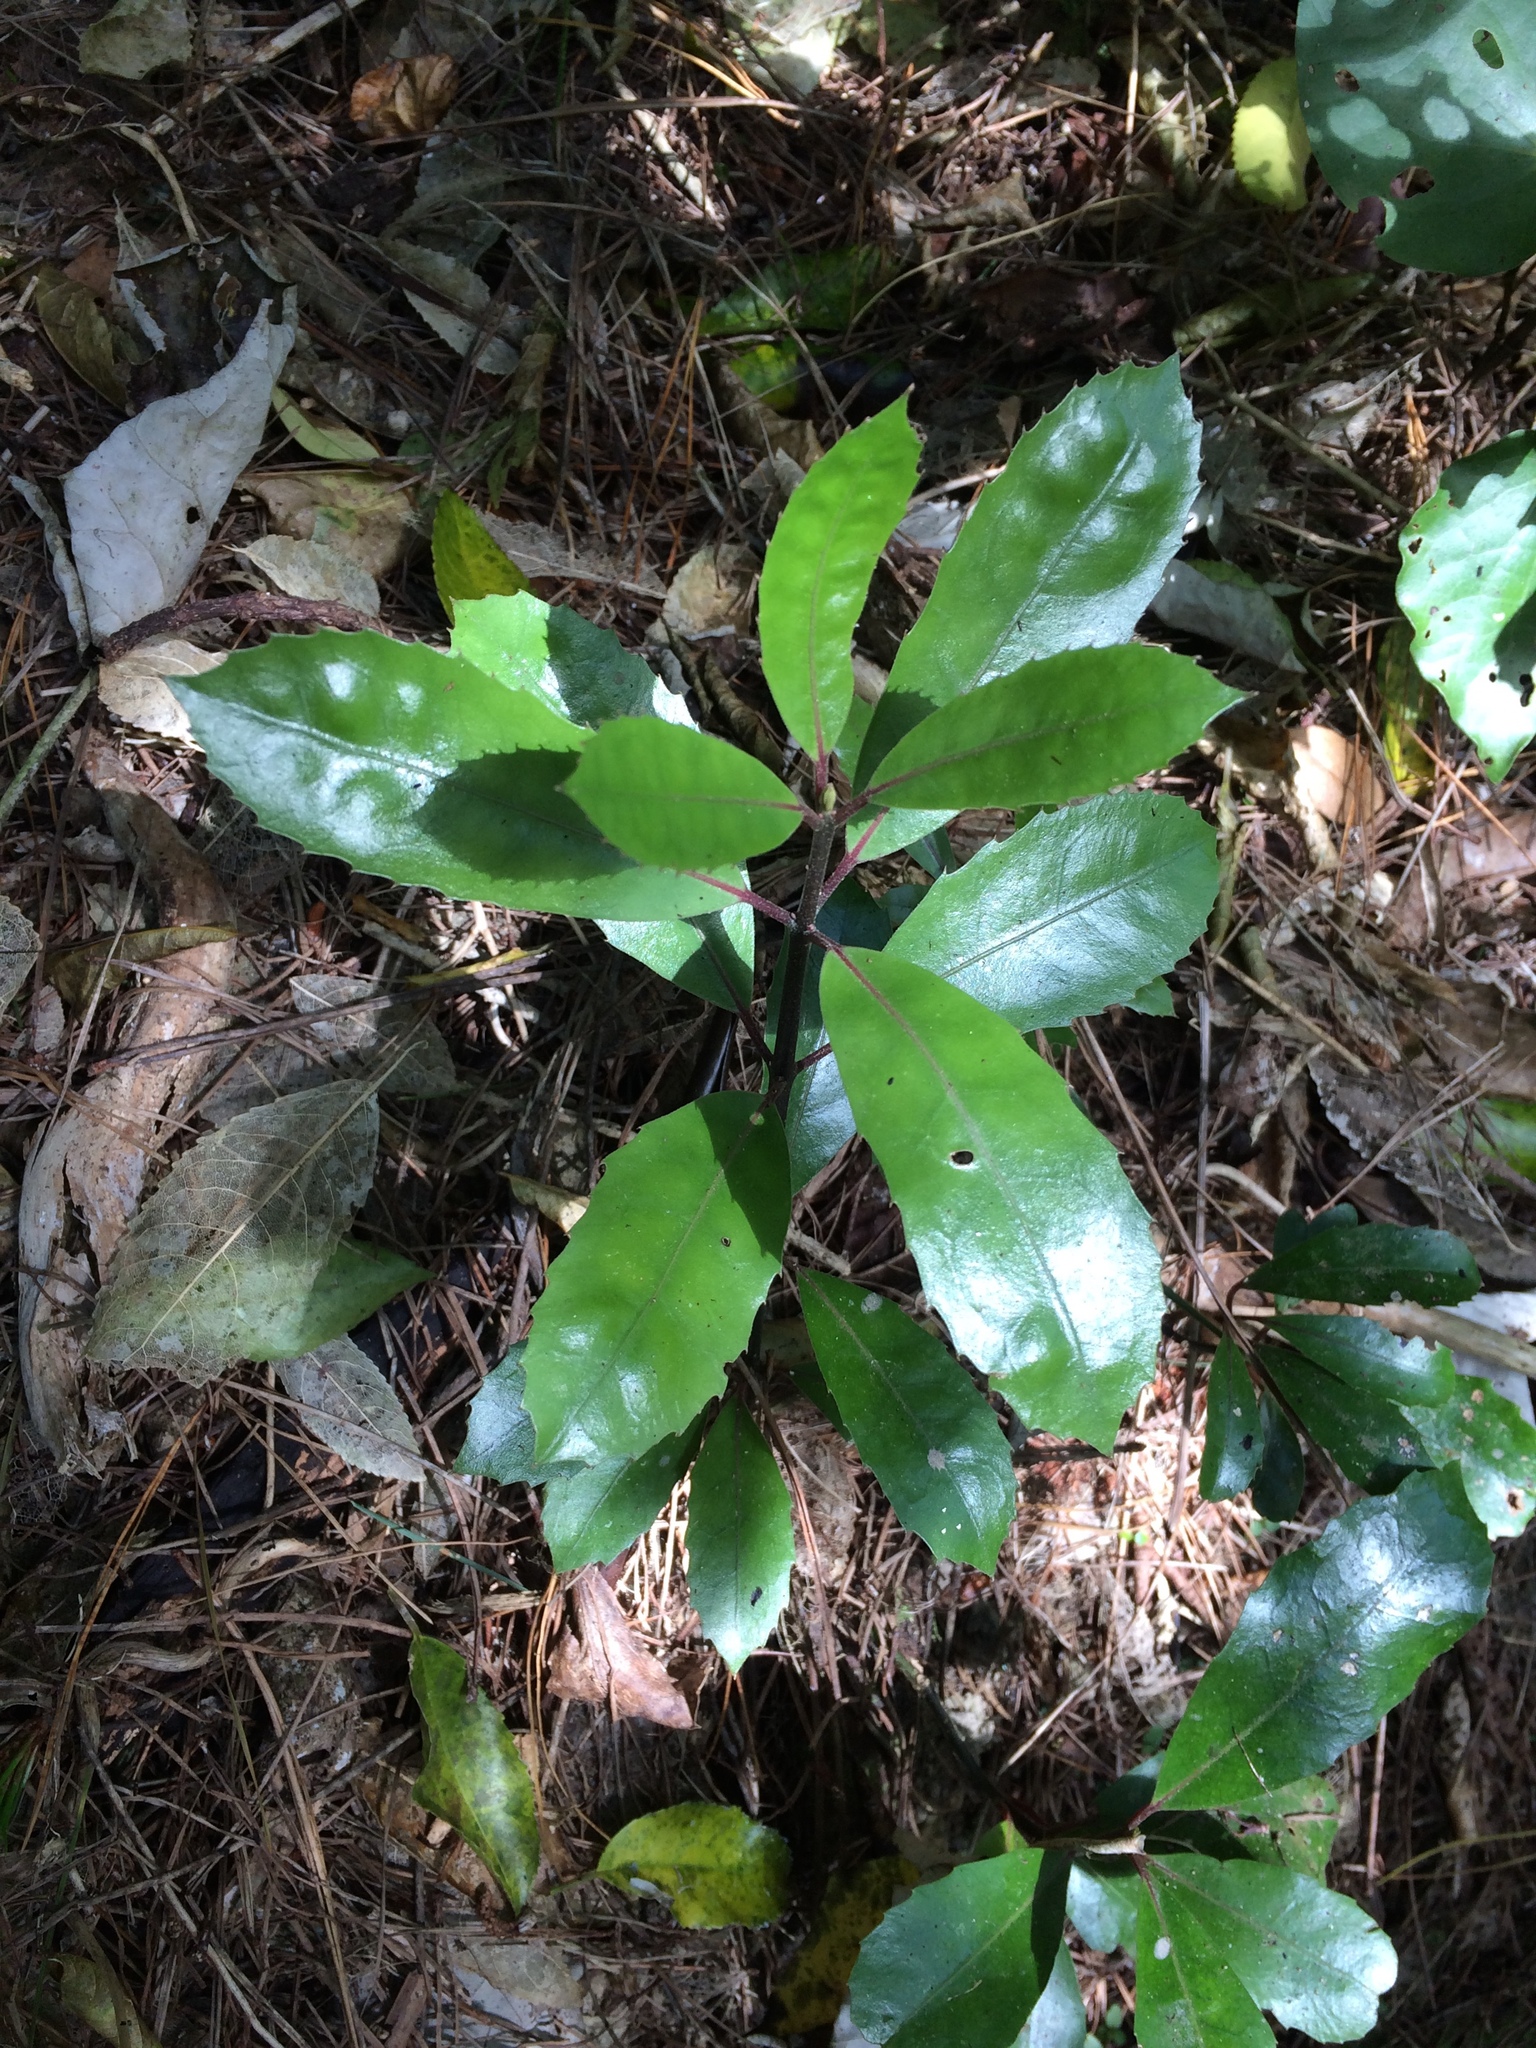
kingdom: Plantae
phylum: Tracheophyta
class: Magnoliopsida
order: Laurales
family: Monimiaceae
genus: Hedycarya
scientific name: Hedycarya arborea
